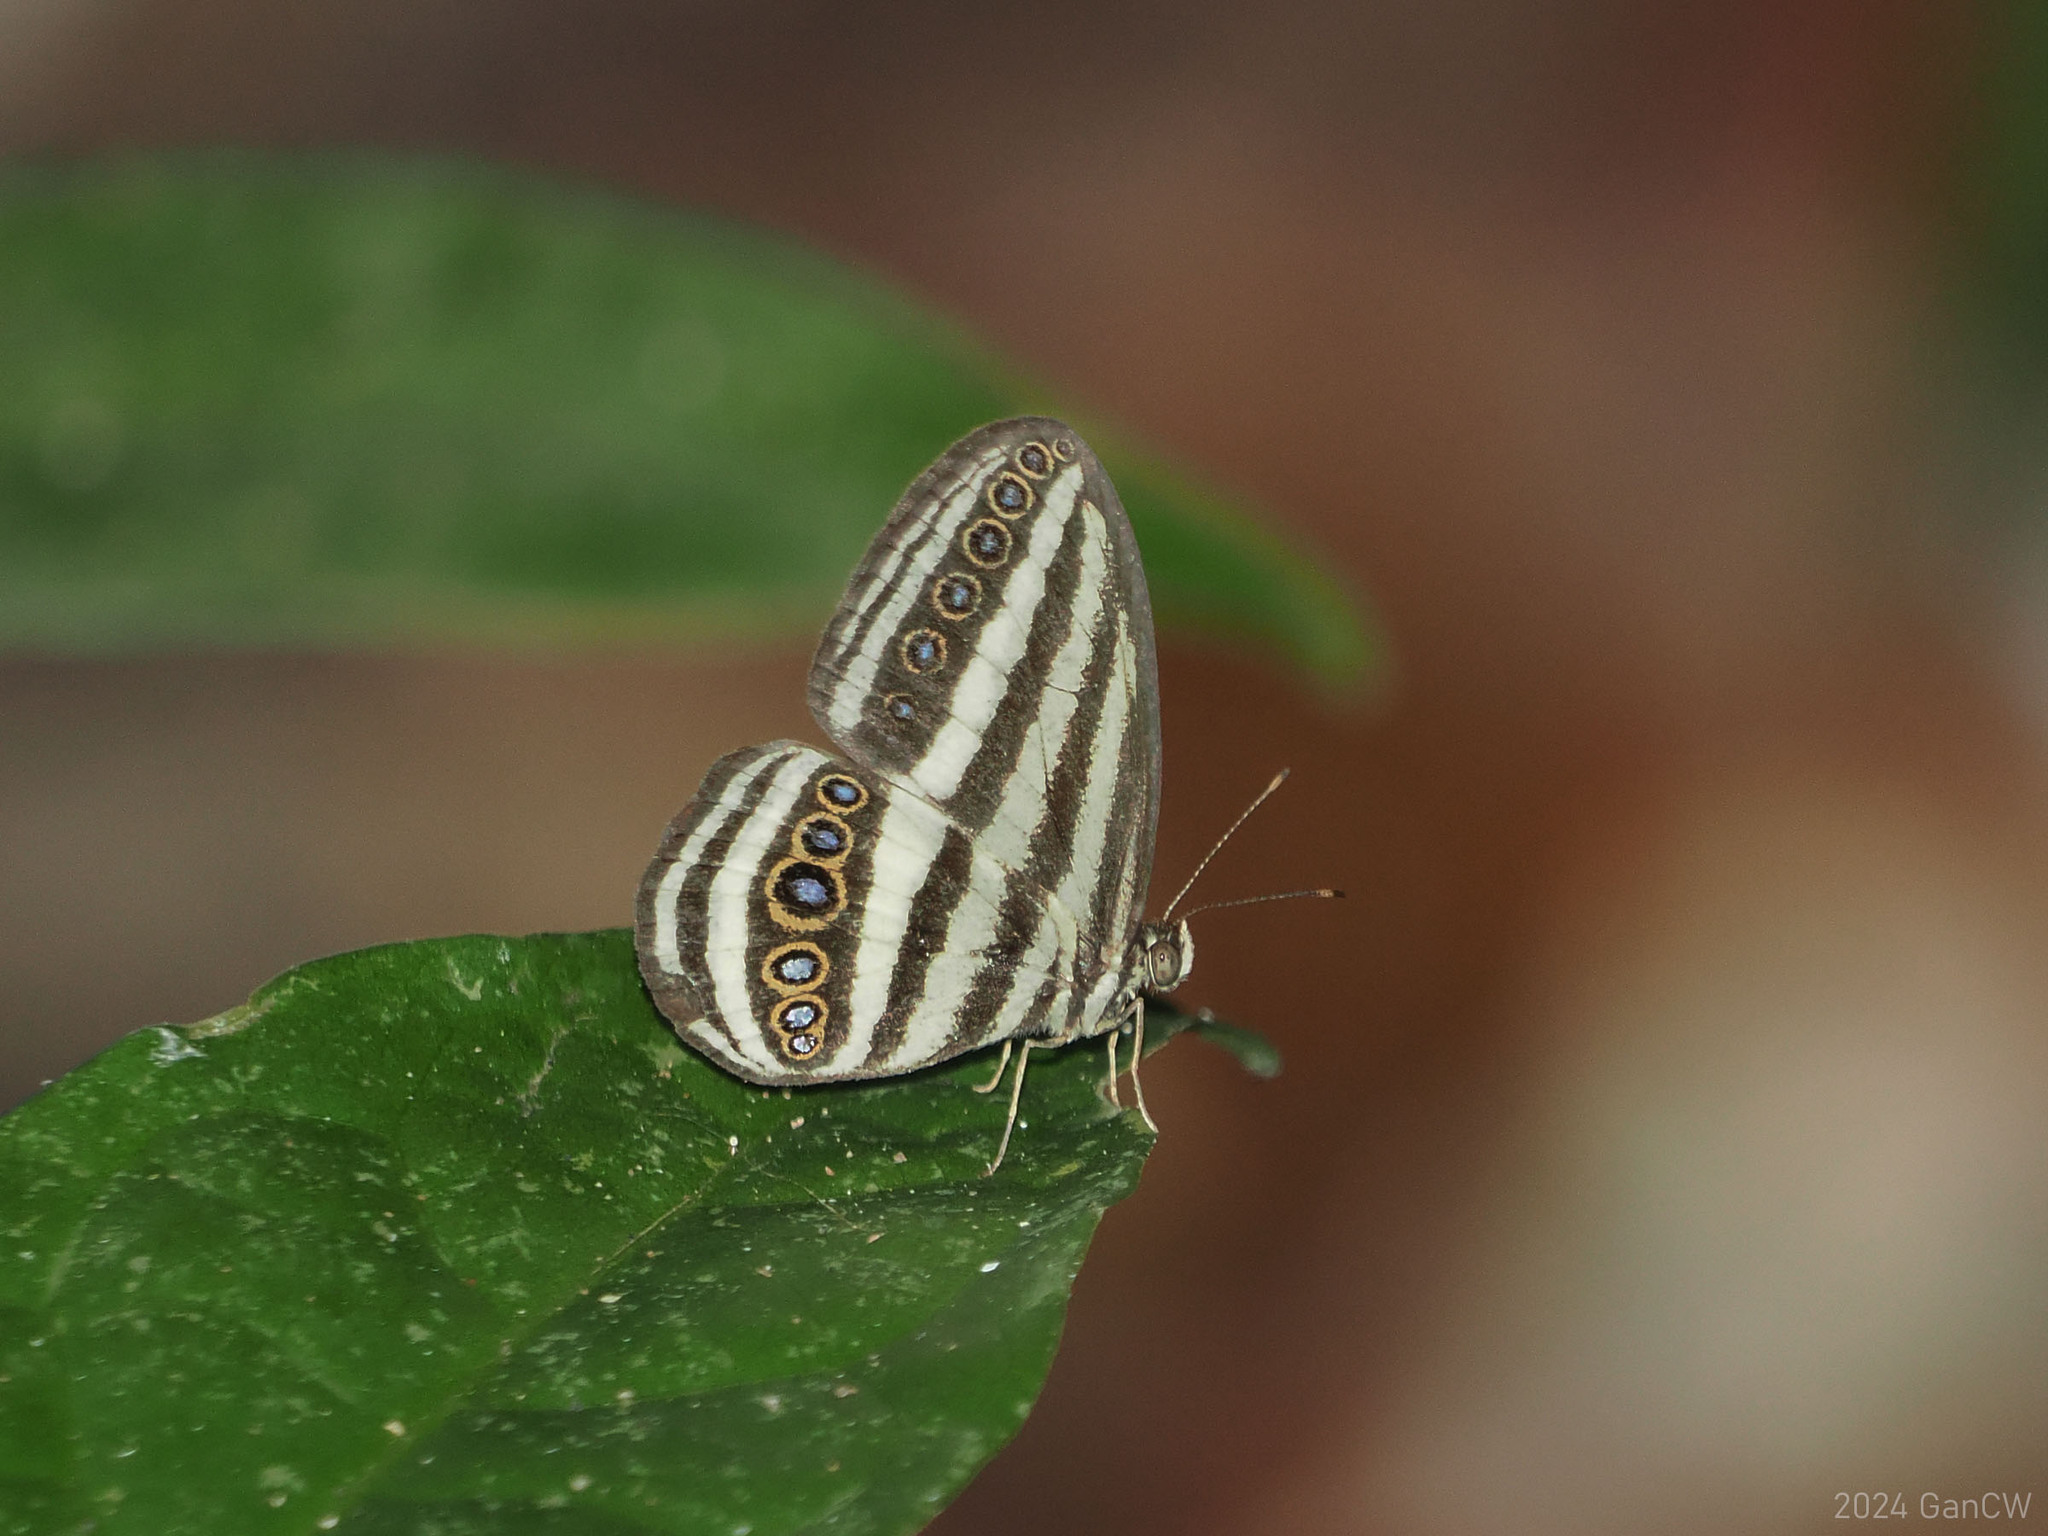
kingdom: Animalia
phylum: Arthropoda
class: Insecta
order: Lepidoptera
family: Nymphalidae
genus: Ragadia
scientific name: Ragadia crisilda
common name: White-striped ringlet
